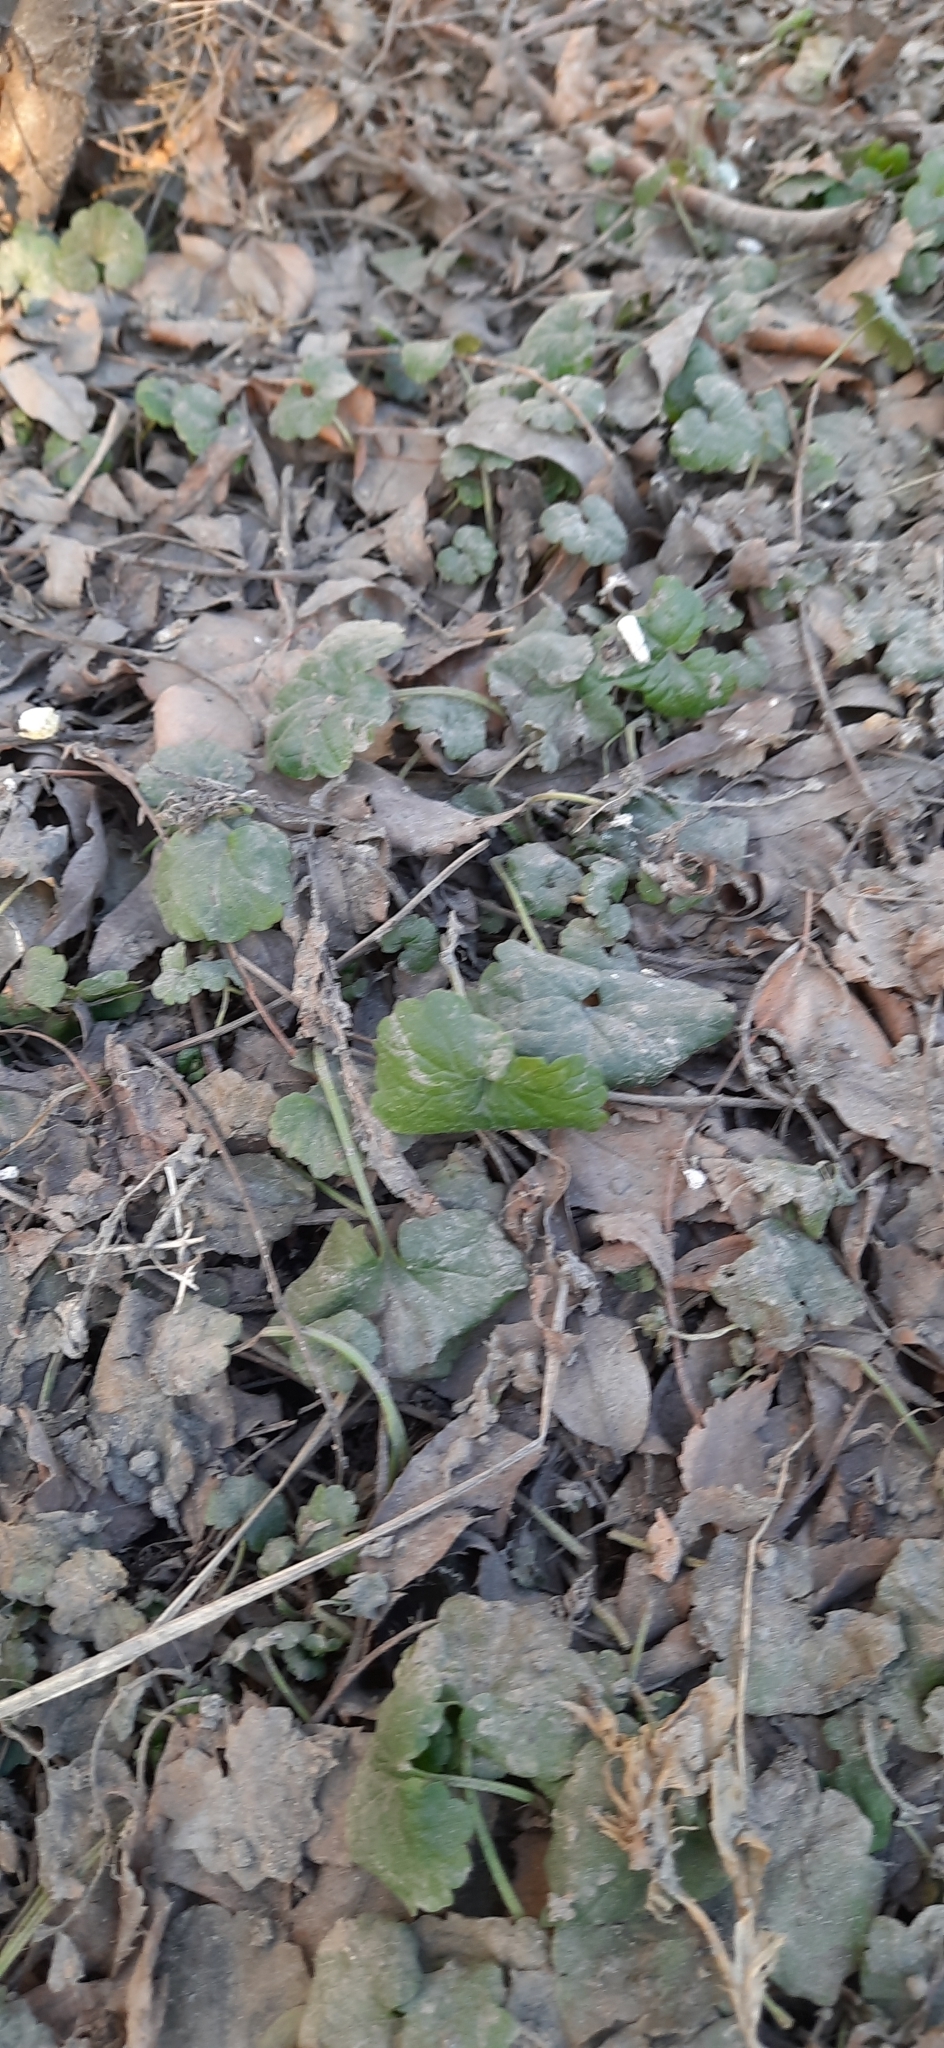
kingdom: Plantae
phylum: Tracheophyta
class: Magnoliopsida
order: Lamiales
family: Lamiaceae
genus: Glechoma
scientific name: Glechoma hederacea
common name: Ground ivy
